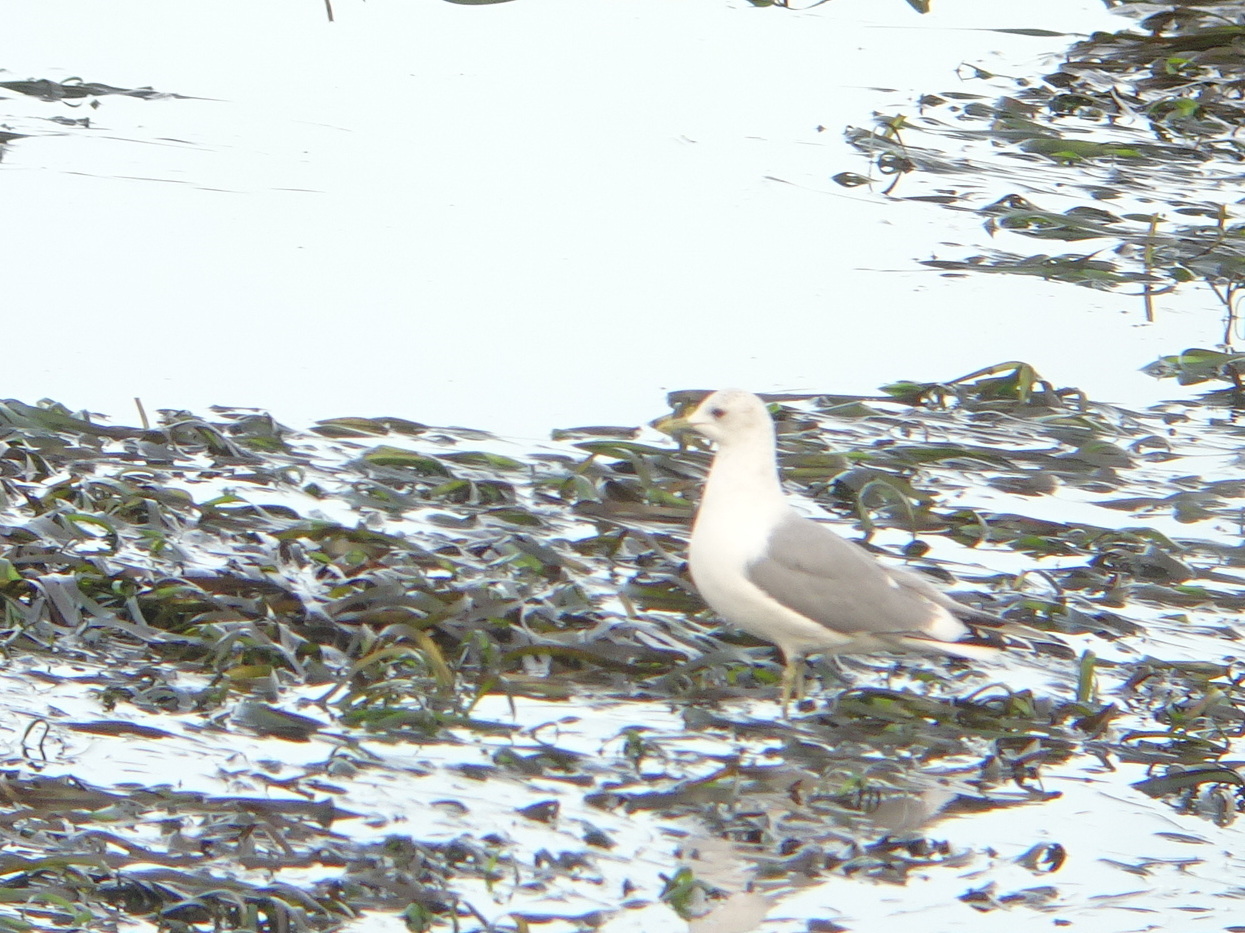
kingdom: Animalia
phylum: Chordata
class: Aves
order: Charadriiformes
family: Laridae
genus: Larus
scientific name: Larus brachyrhynchus
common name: Short-billed gull
